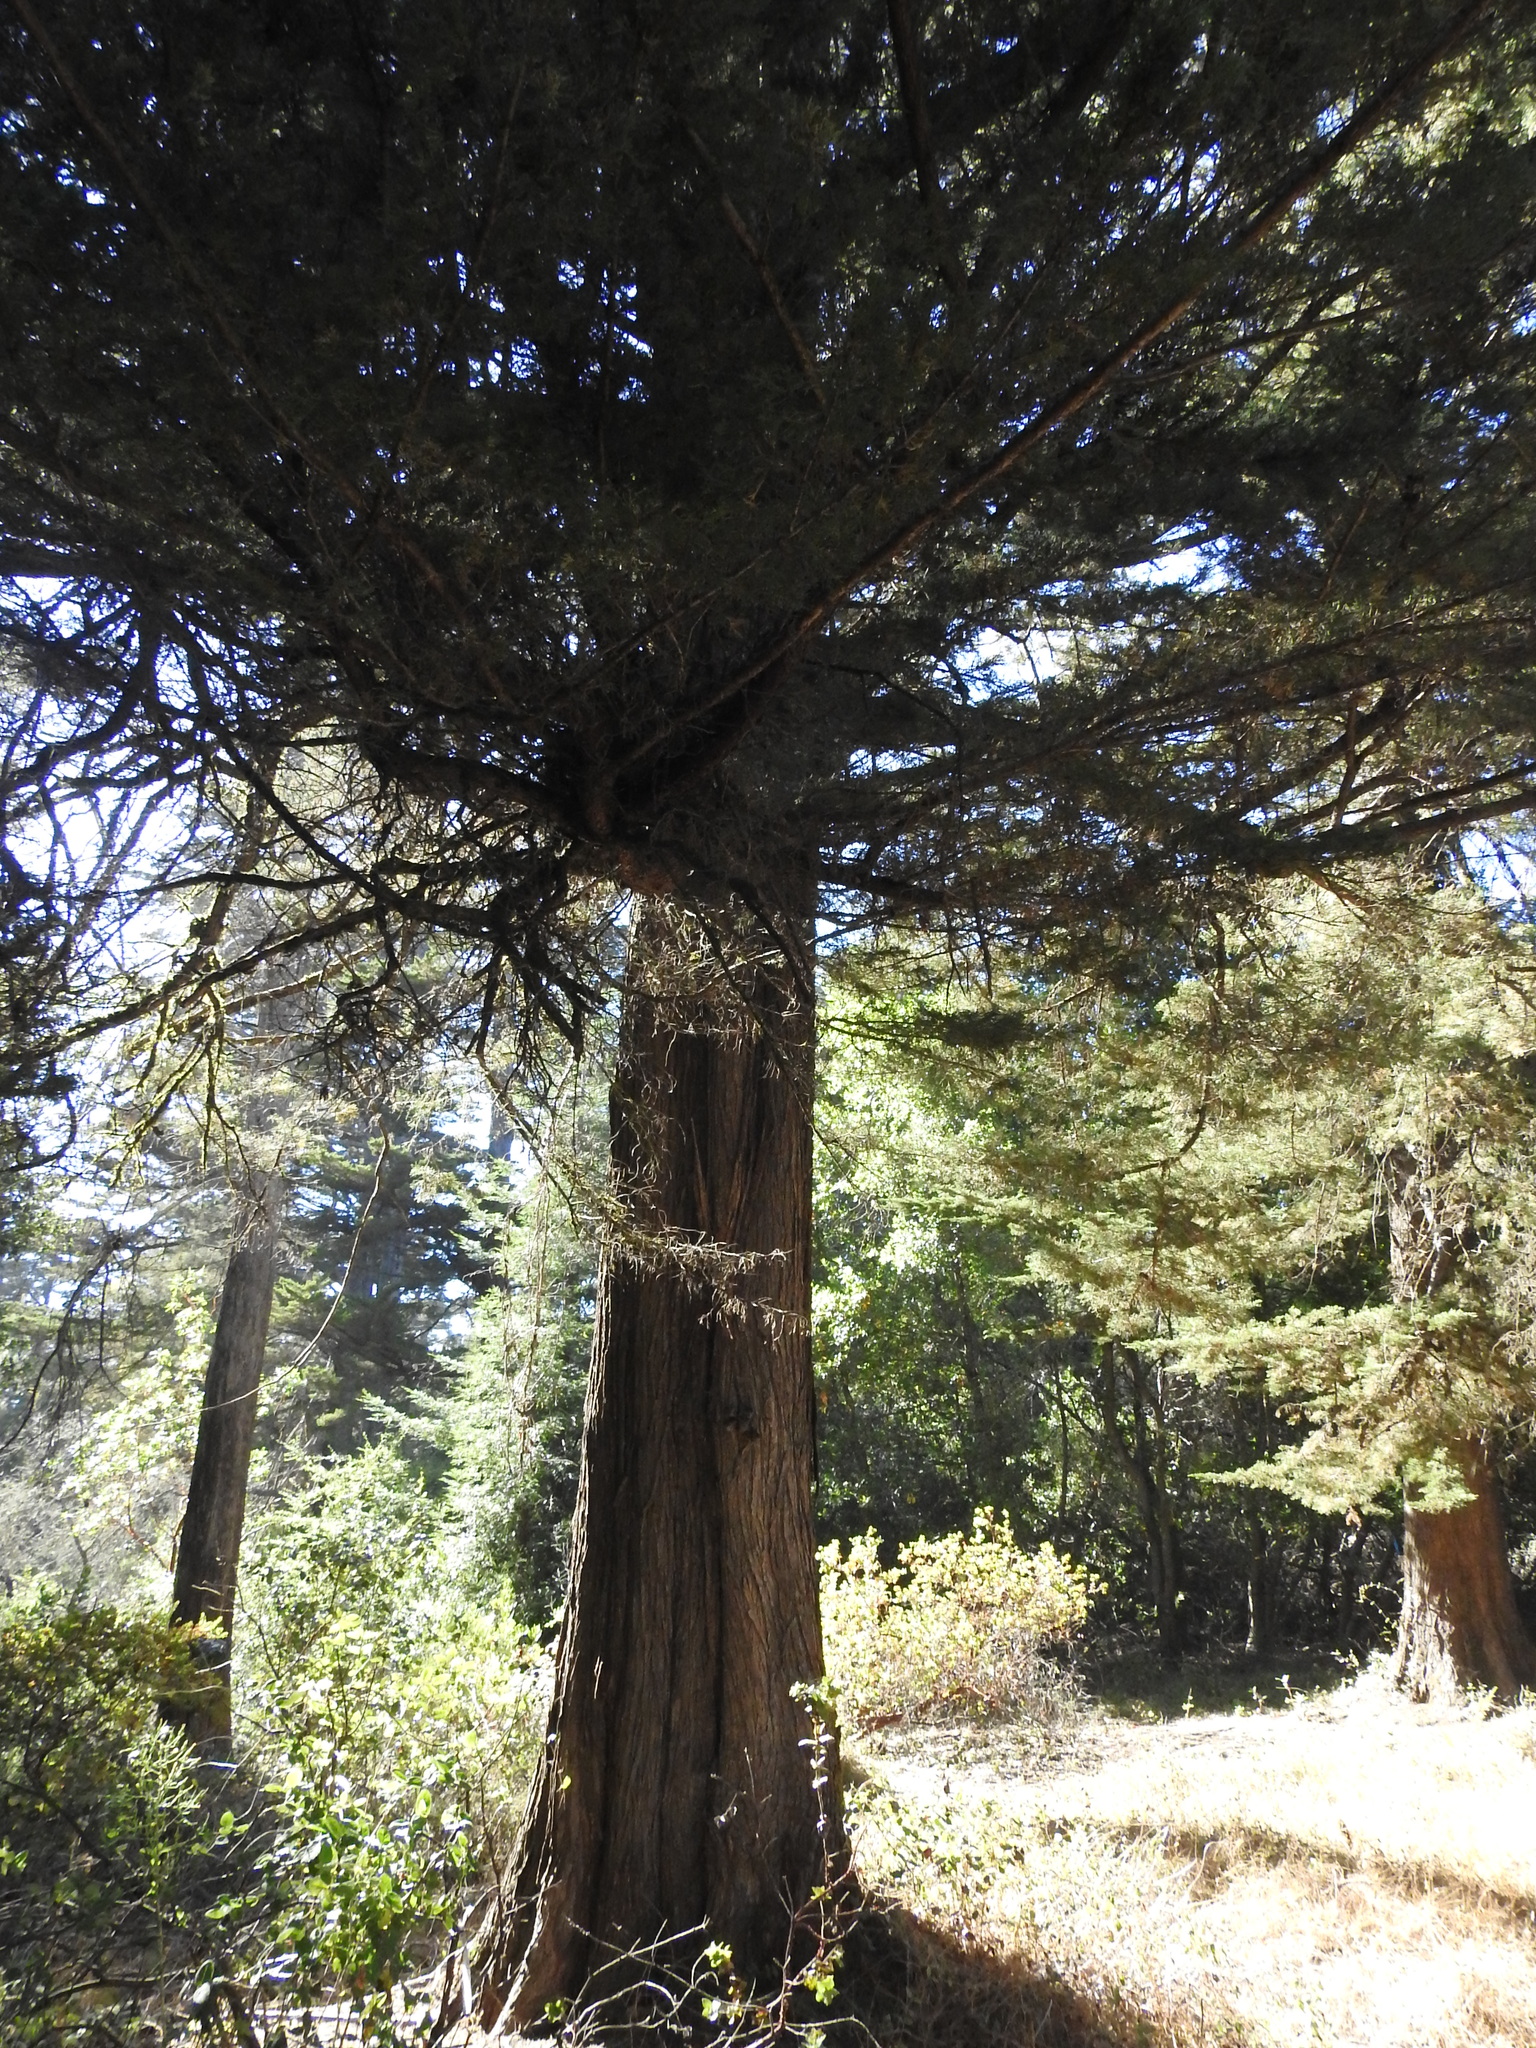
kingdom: Plantae
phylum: Tracheophyta
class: Pinopsida
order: Pinales
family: Cupressaceae
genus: Cupressus
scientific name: Cupressus macrocarpa
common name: Monterey cypress
